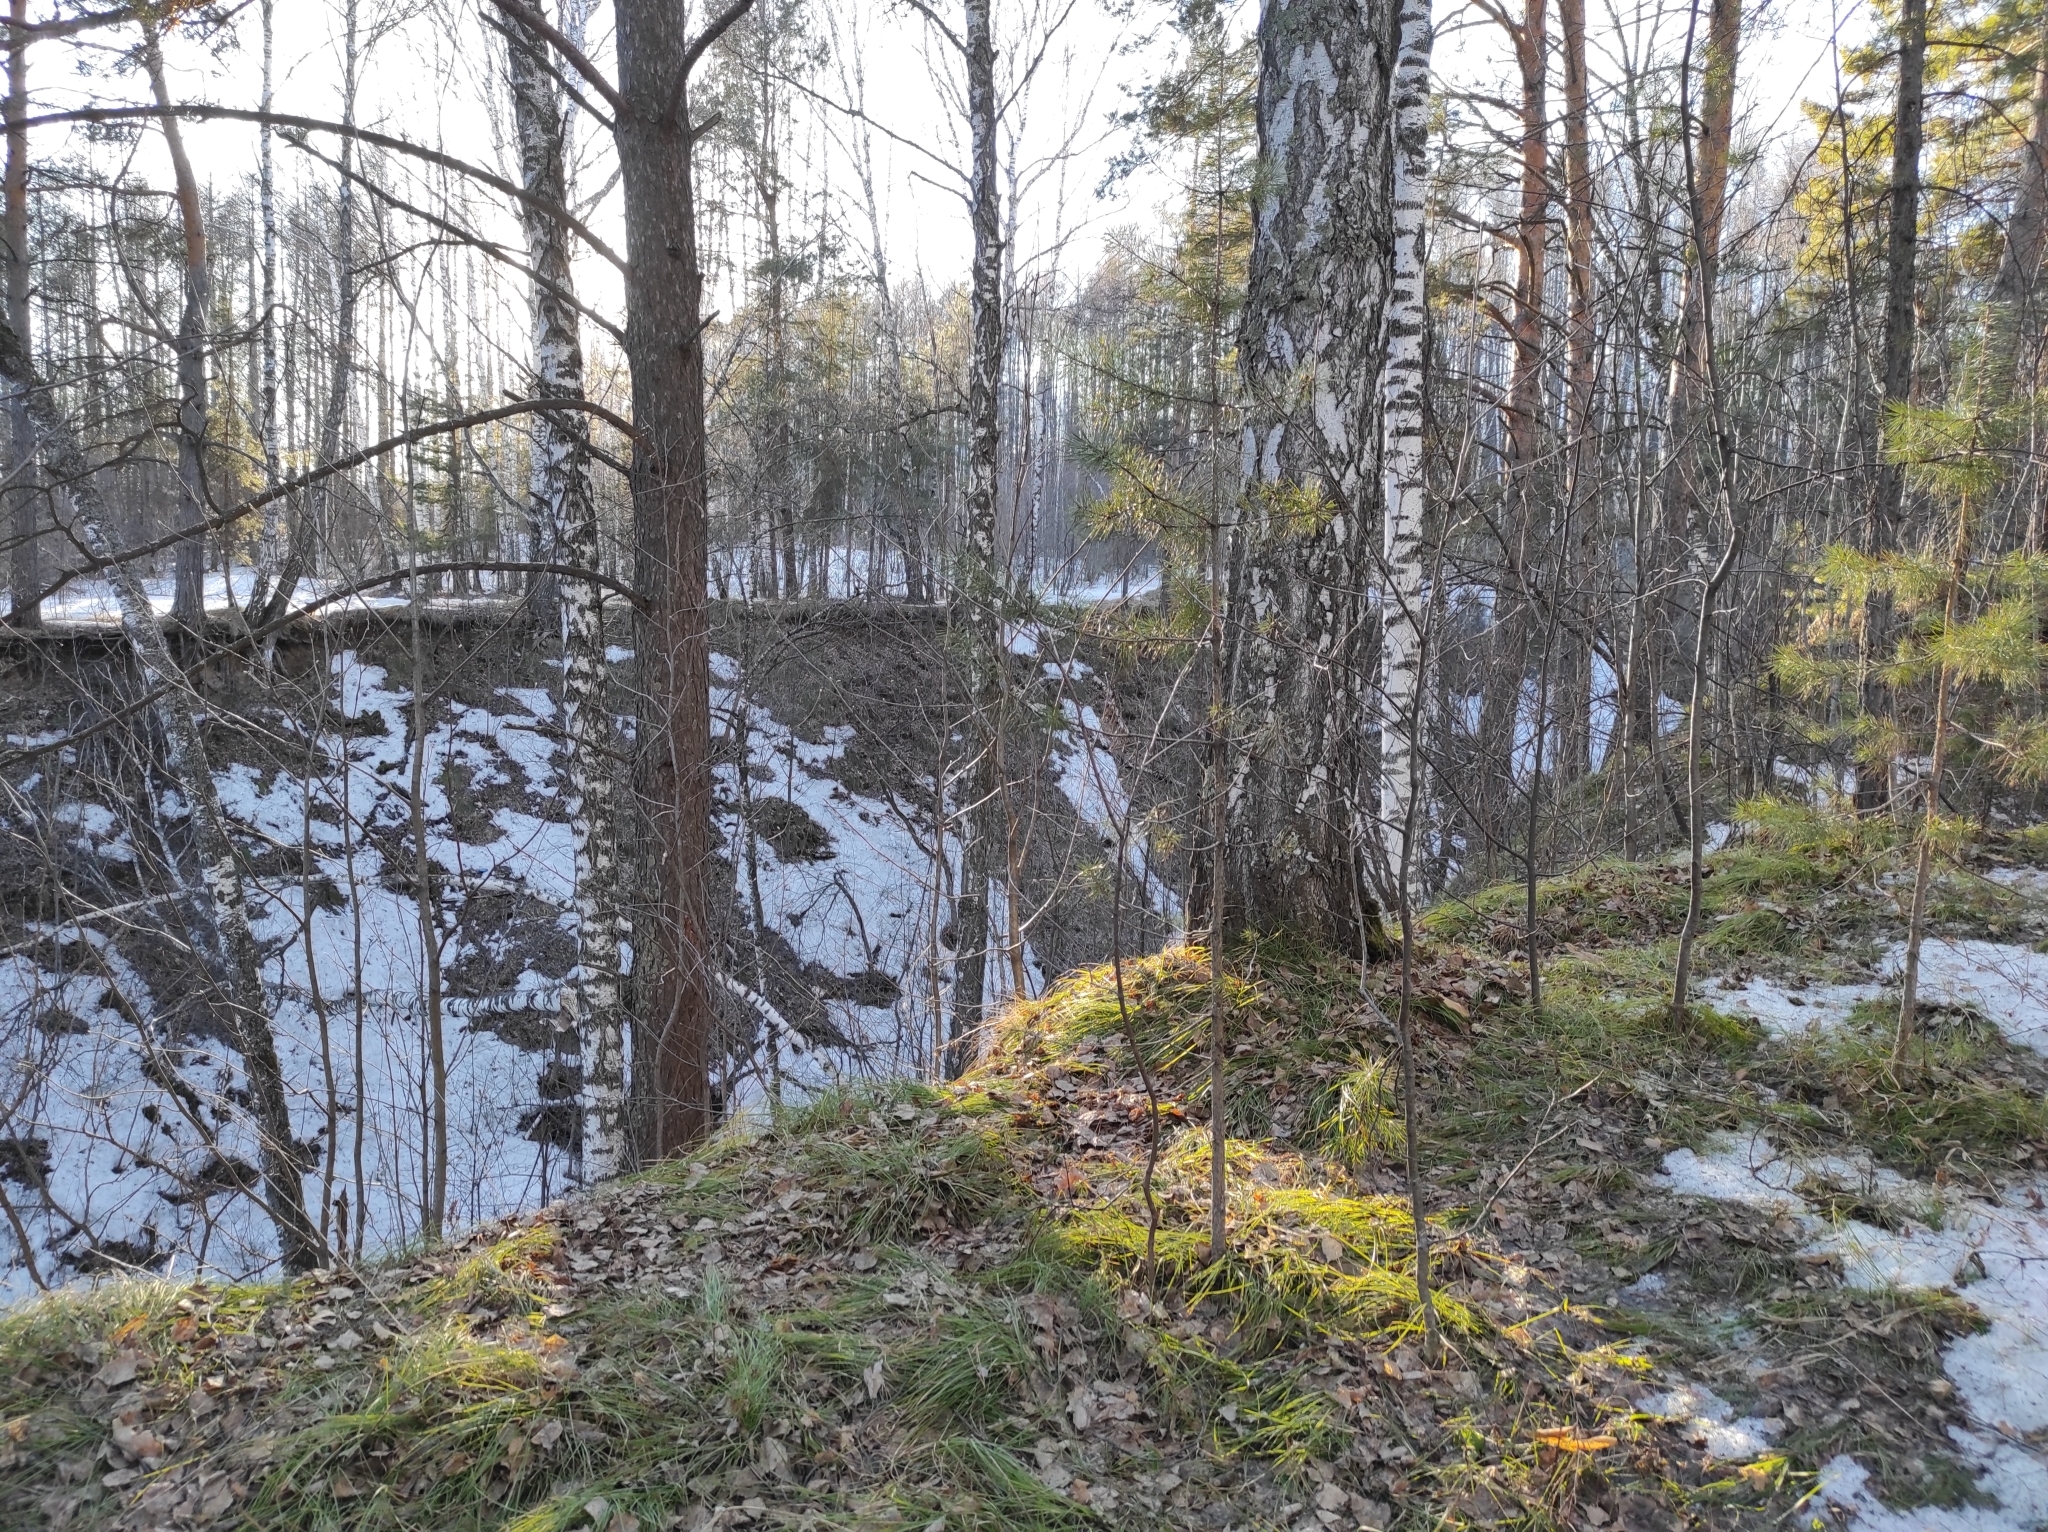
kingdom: Plantae
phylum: Tracheophyta
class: Pinopsida
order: Pinales
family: Pinaceae
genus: Pinus
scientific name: Pinus sylvestris
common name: Scots pine
